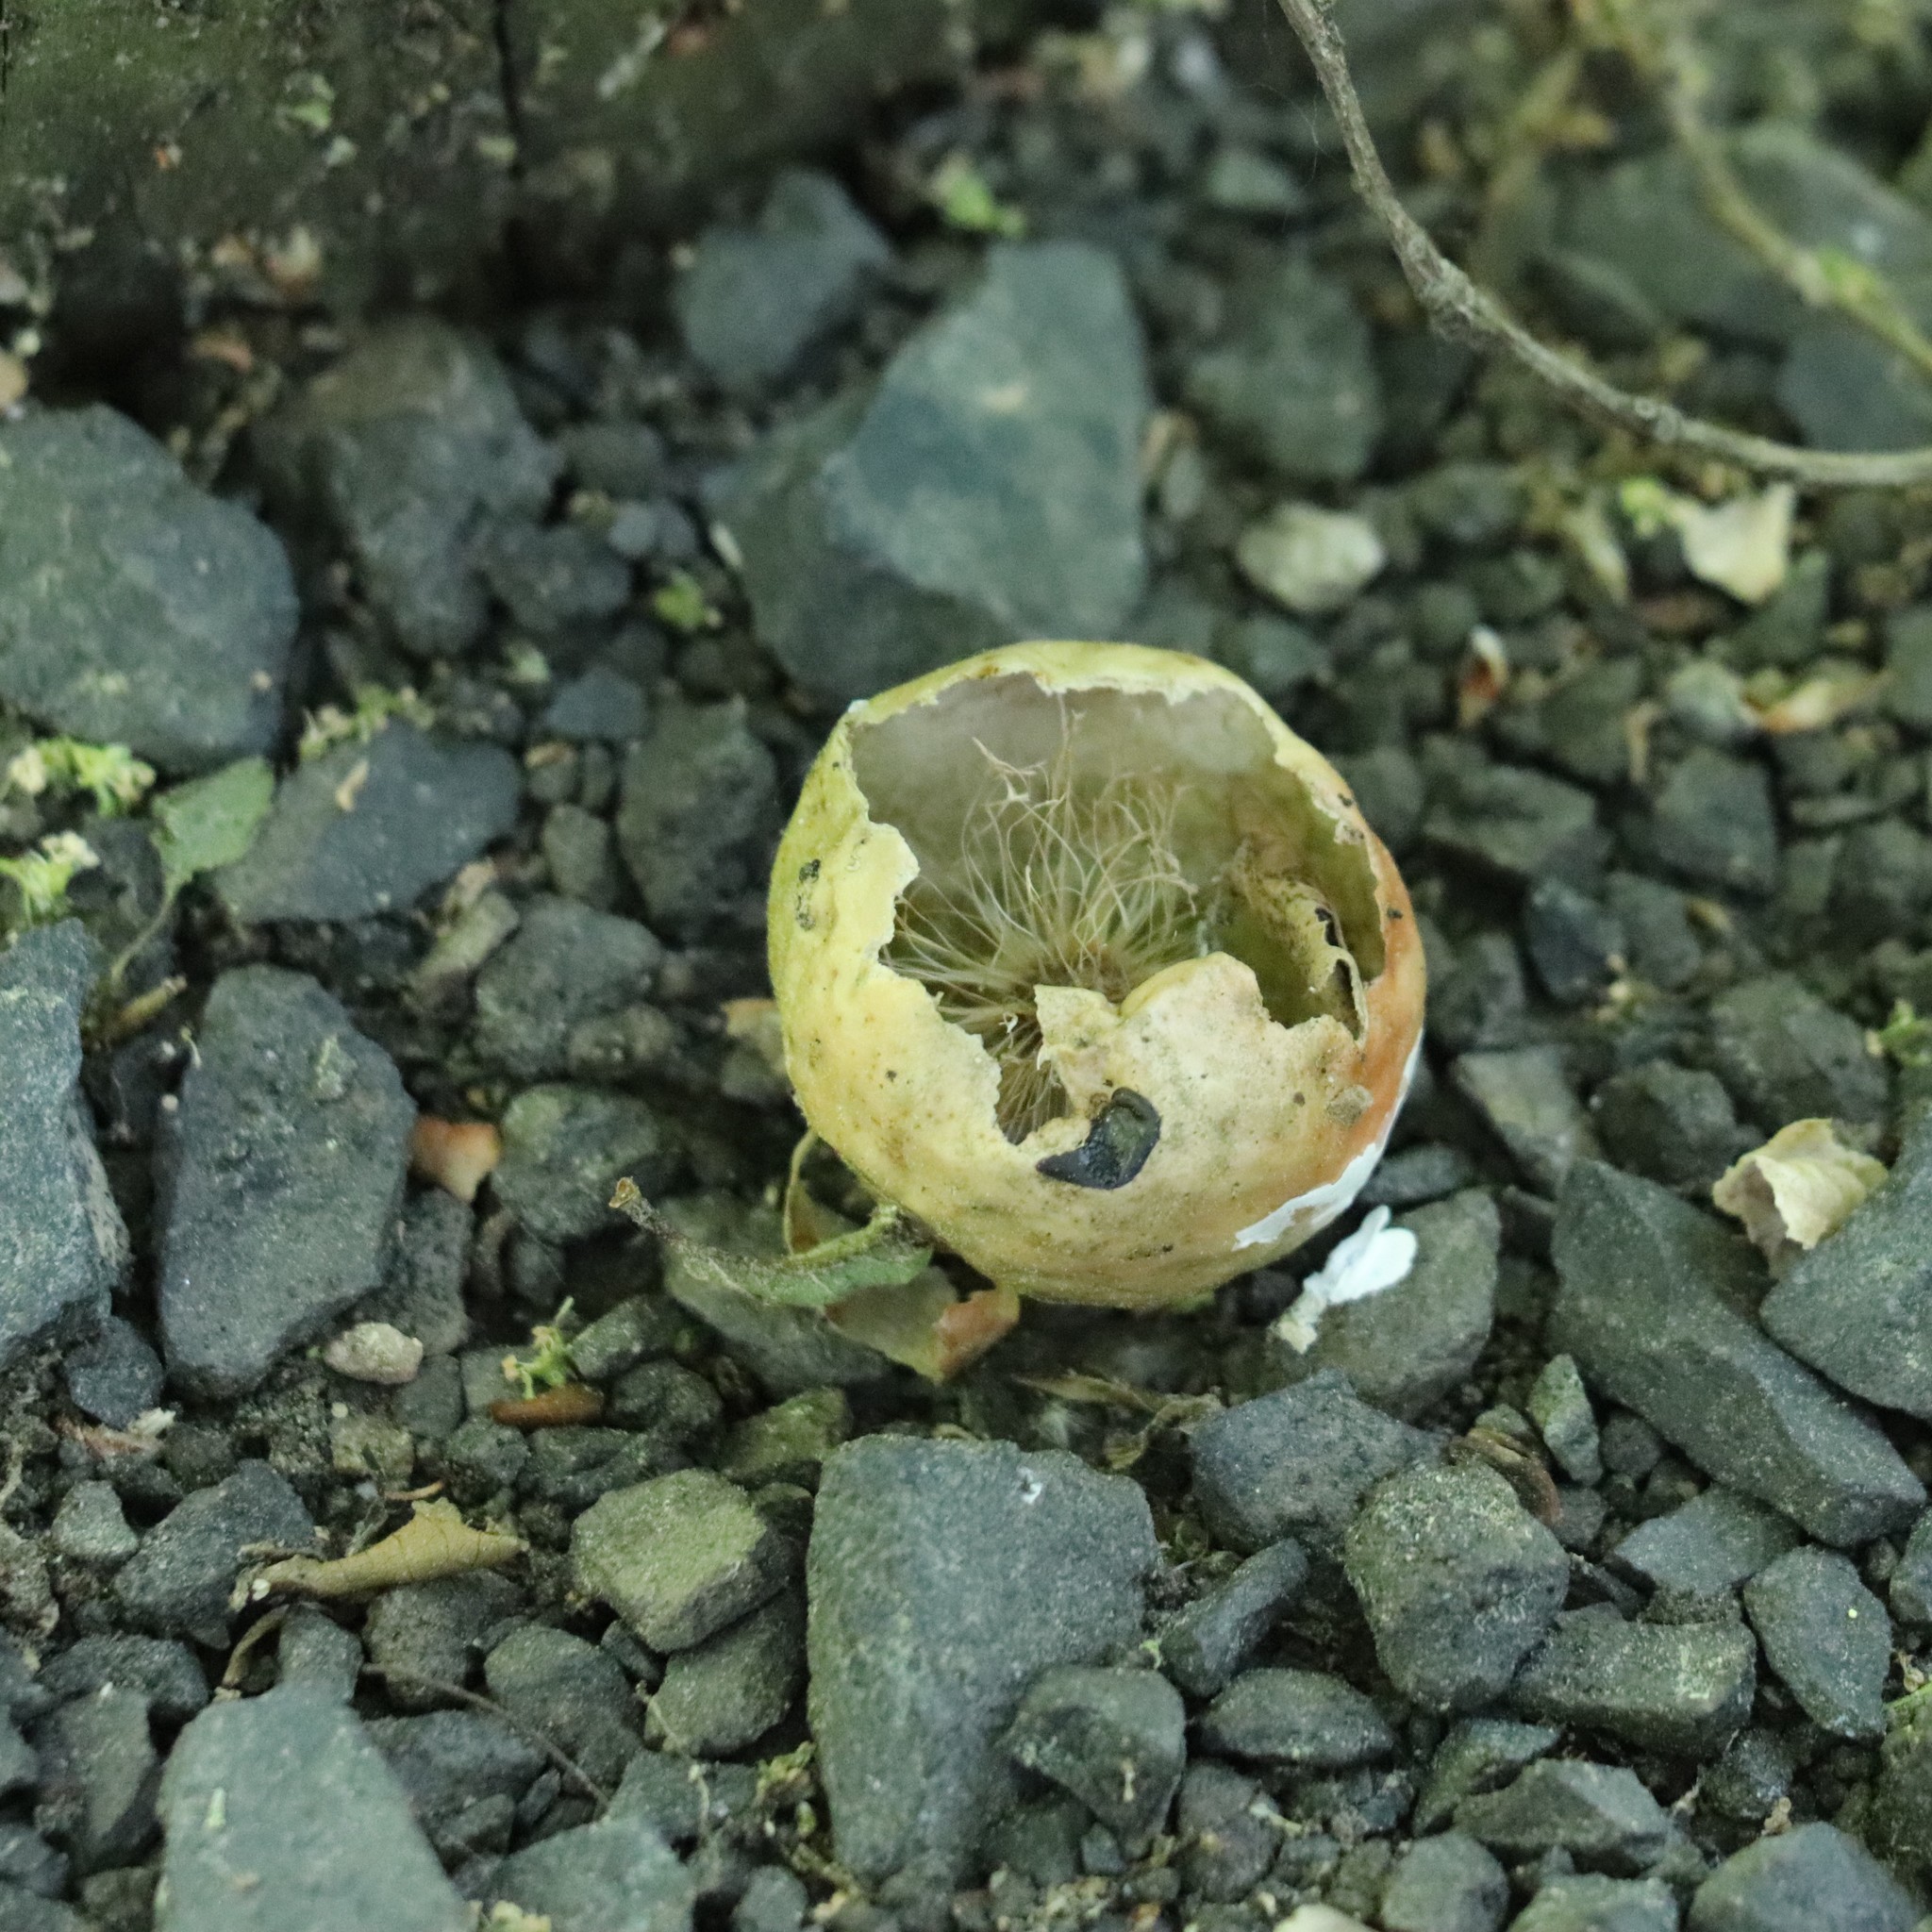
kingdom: Animalia
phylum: Arthropoda
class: Insecta
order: Hymenoptera
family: Cynipidae
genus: Amphibolips
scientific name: Amphibolips
